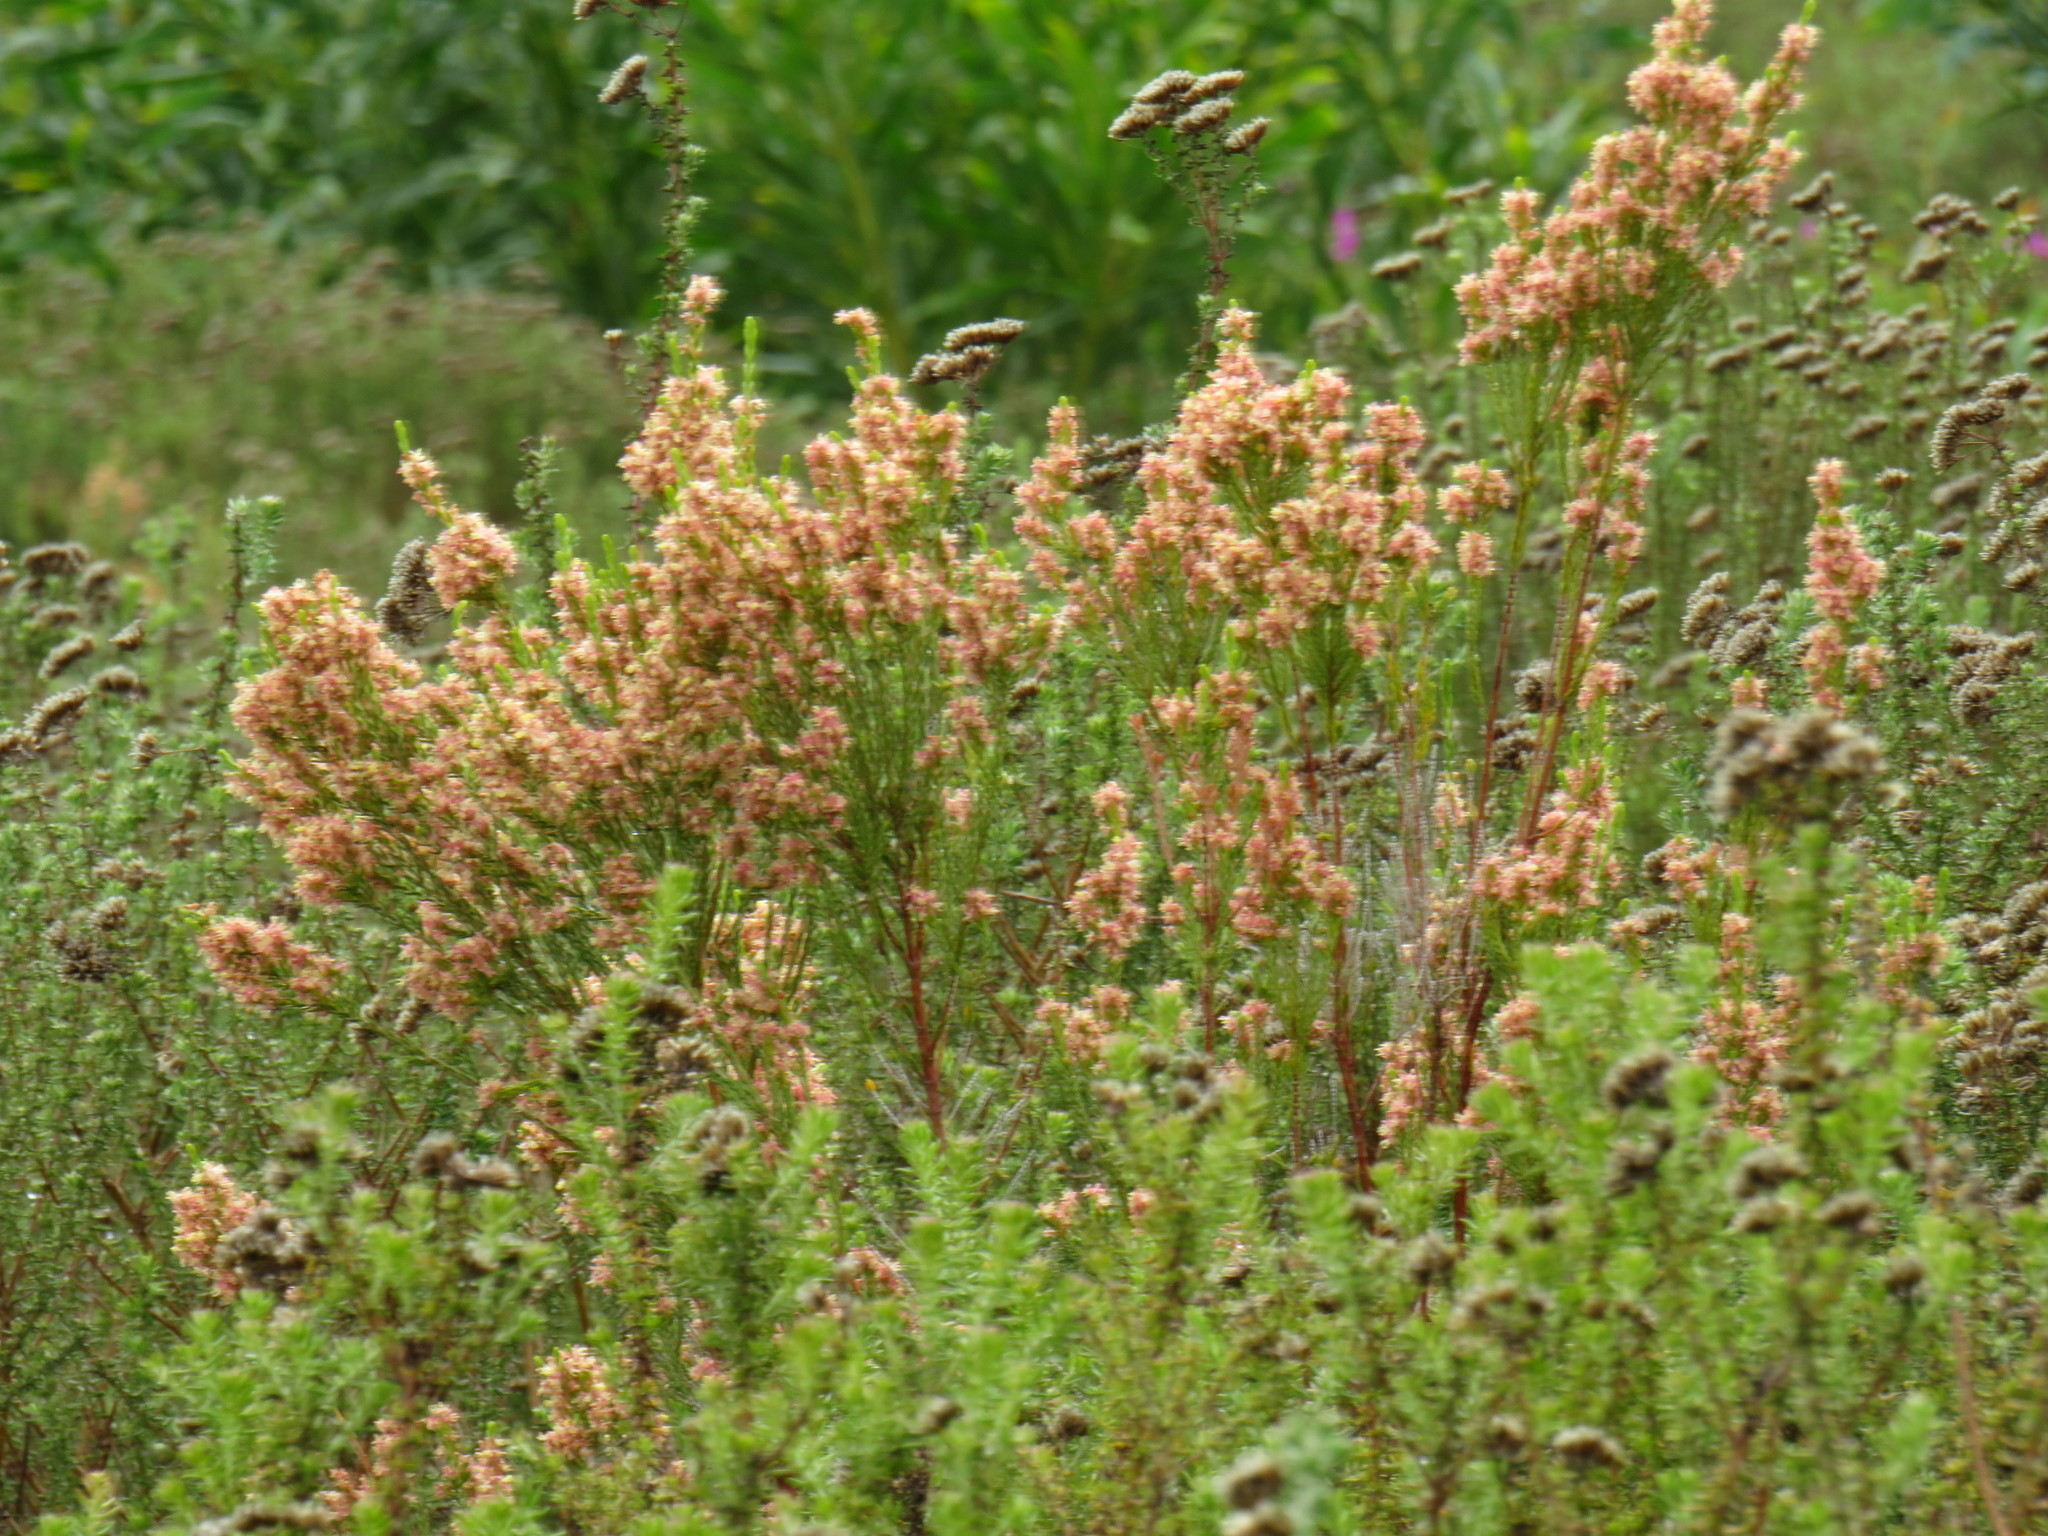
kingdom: Plantae
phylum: Tracheophyta
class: Magnoliopsida
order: Malvales
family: Thymelaeaceae
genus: Passerina
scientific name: Passerina corymbosa
